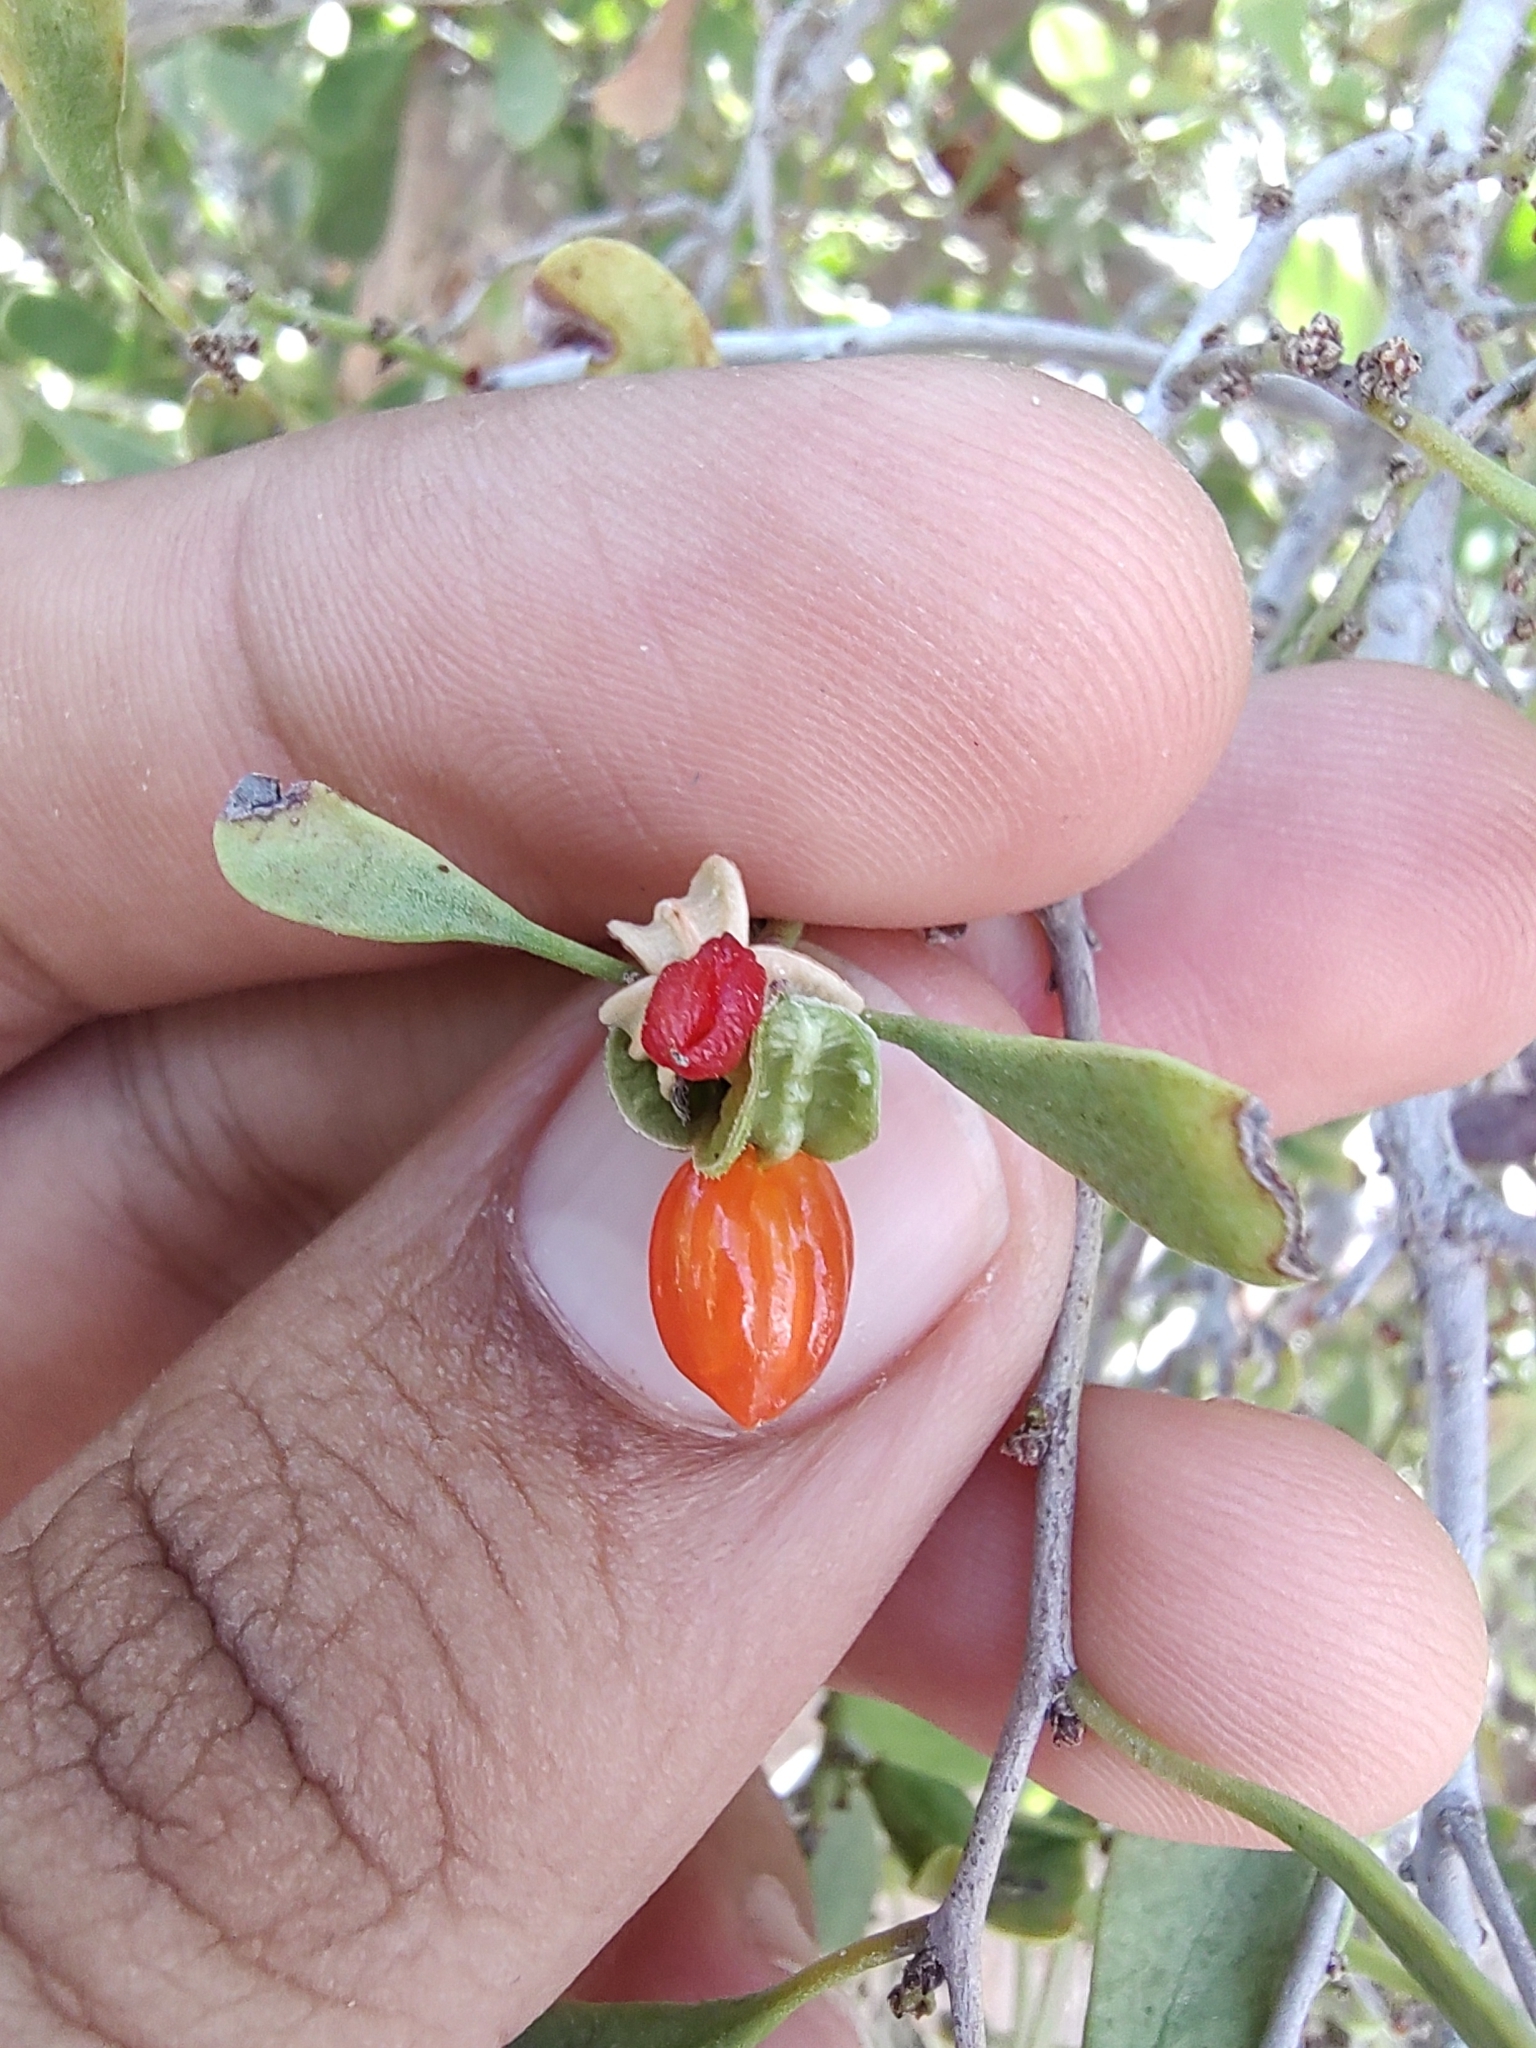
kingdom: Plantae
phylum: Tracheophyta
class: Magnoliopsida
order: Celastrales
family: Celastraceae
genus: Tricerma
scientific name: Tricerma phyllanthoides
